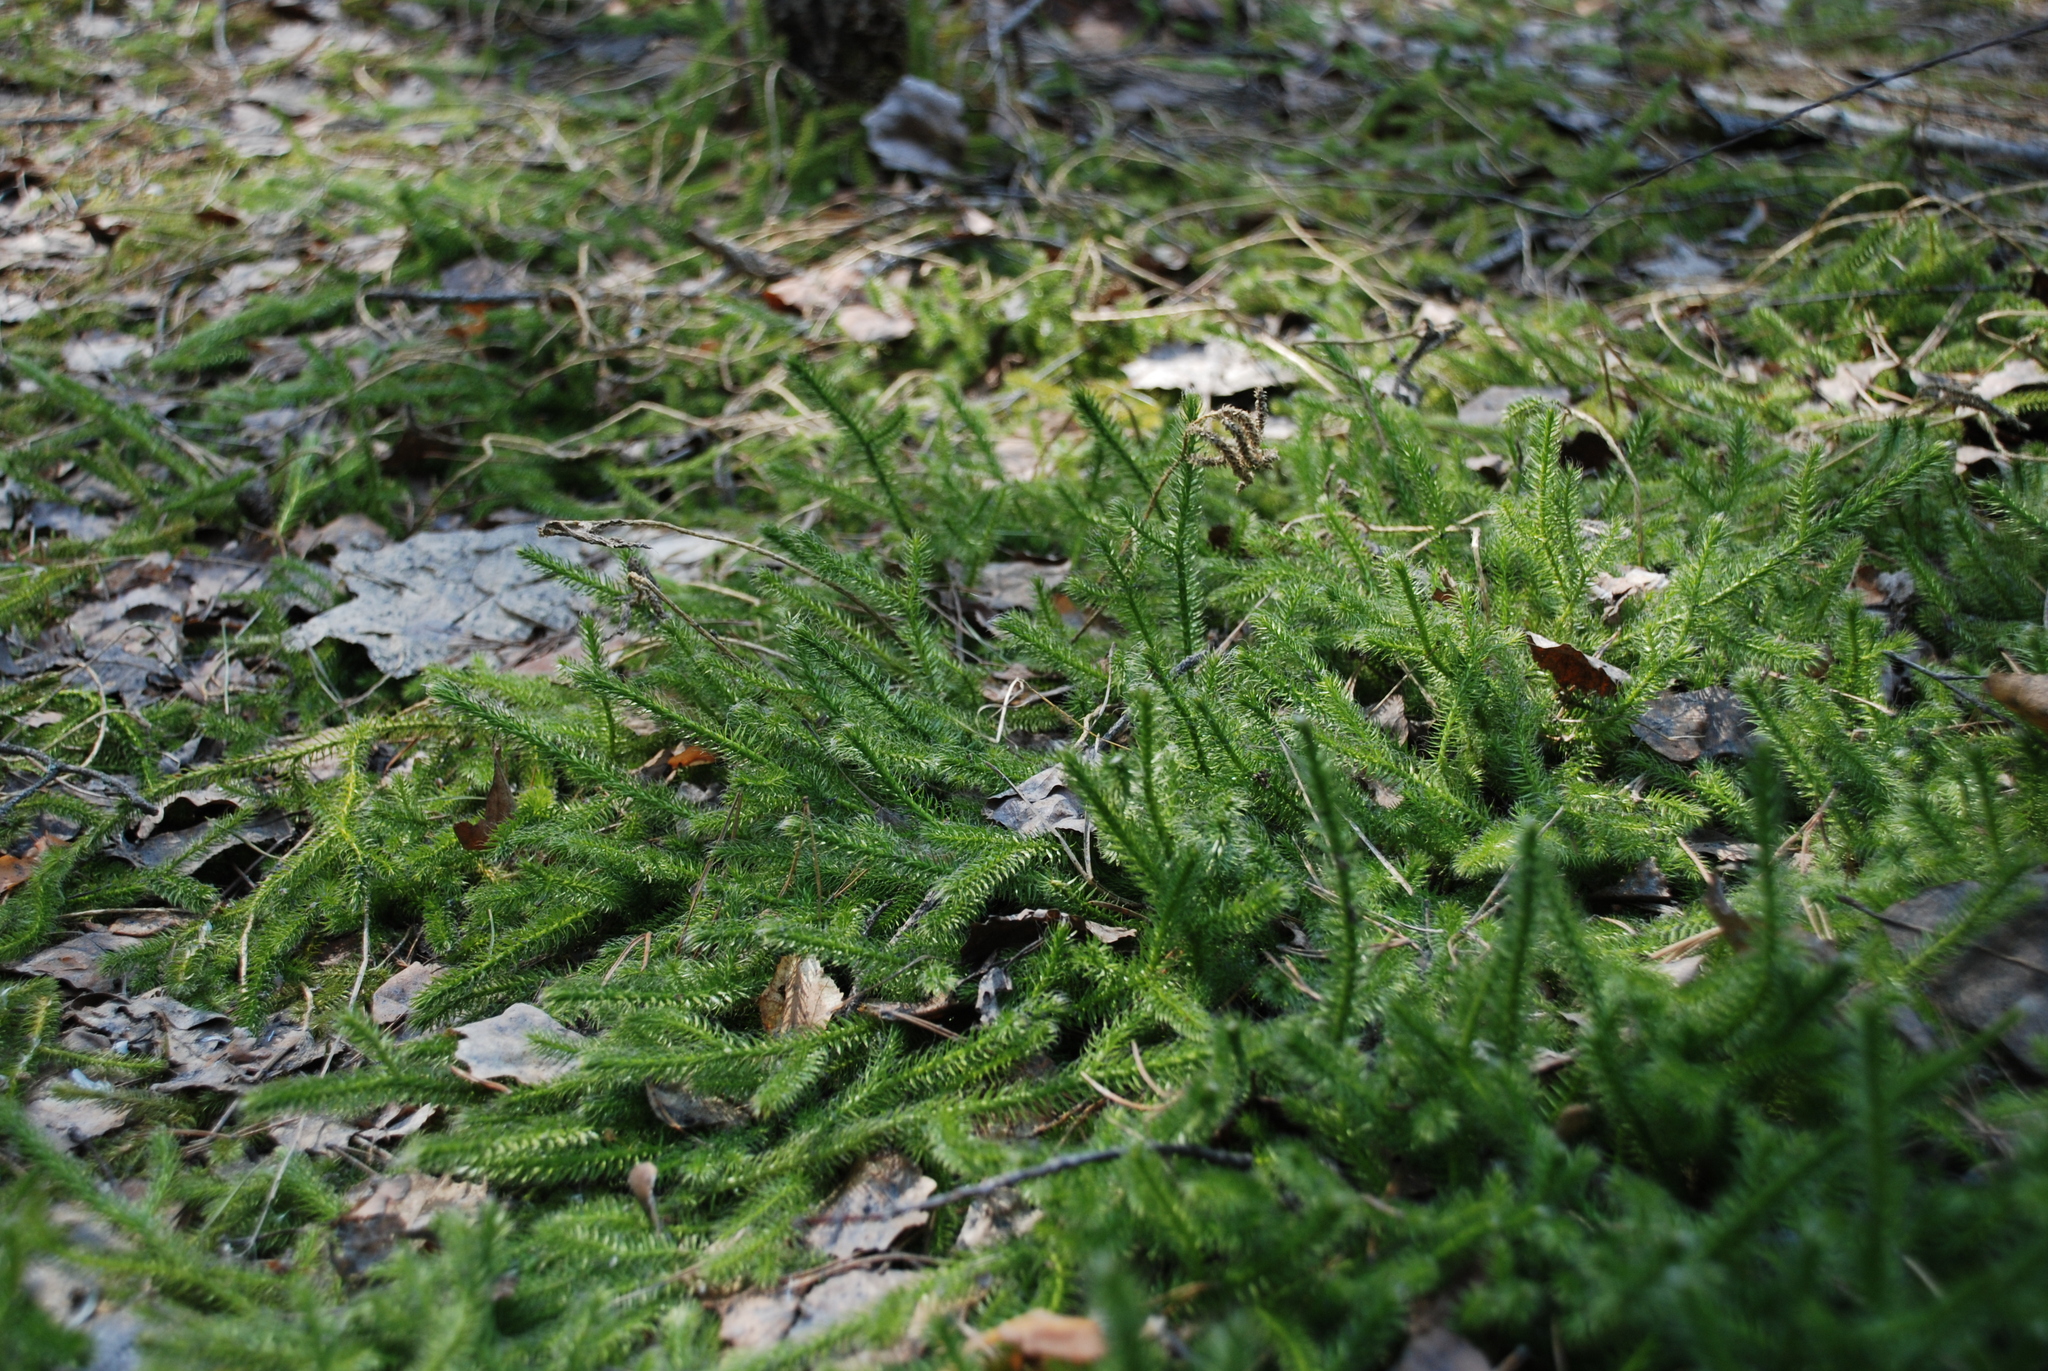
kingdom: Plantae
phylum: Tracheophyta
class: Lycopodiopsida
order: Lycopodiales
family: Lycopodiaceae
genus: Lycopodium
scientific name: Lycopodium clavatum
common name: Stag's-horn clubmoss
